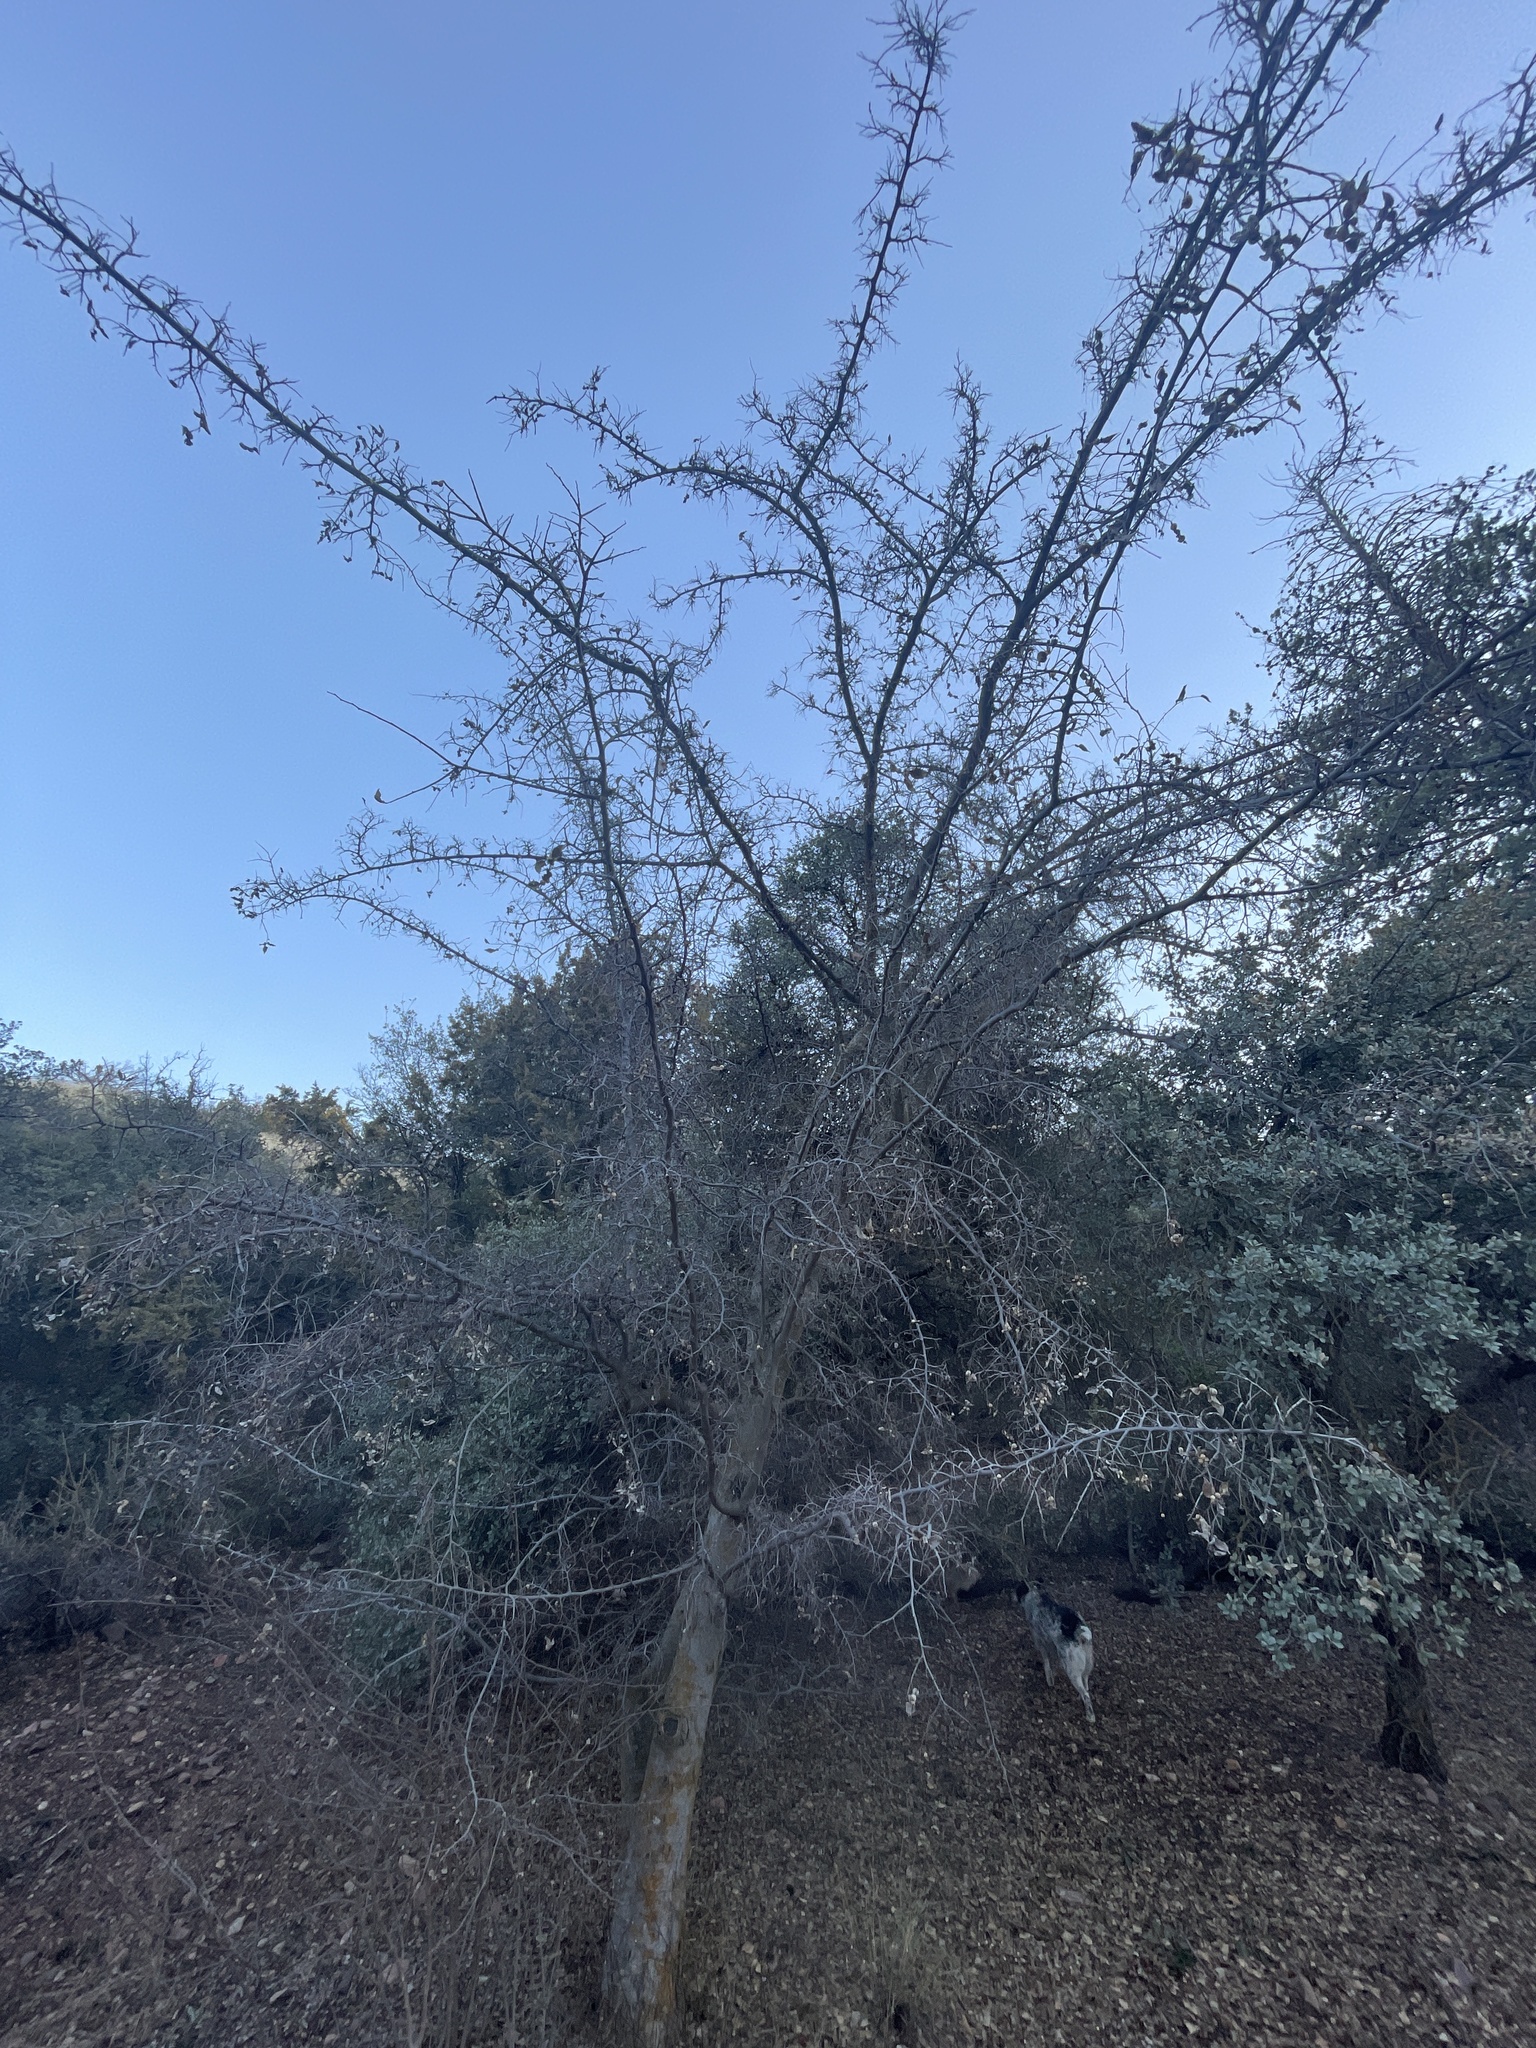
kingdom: Plantae
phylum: Tracheophyta
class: Magnoliopsida
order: Rosales
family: Cannabaceae
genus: Celtis
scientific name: Celtis reticulata
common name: Netleaf hackberry
